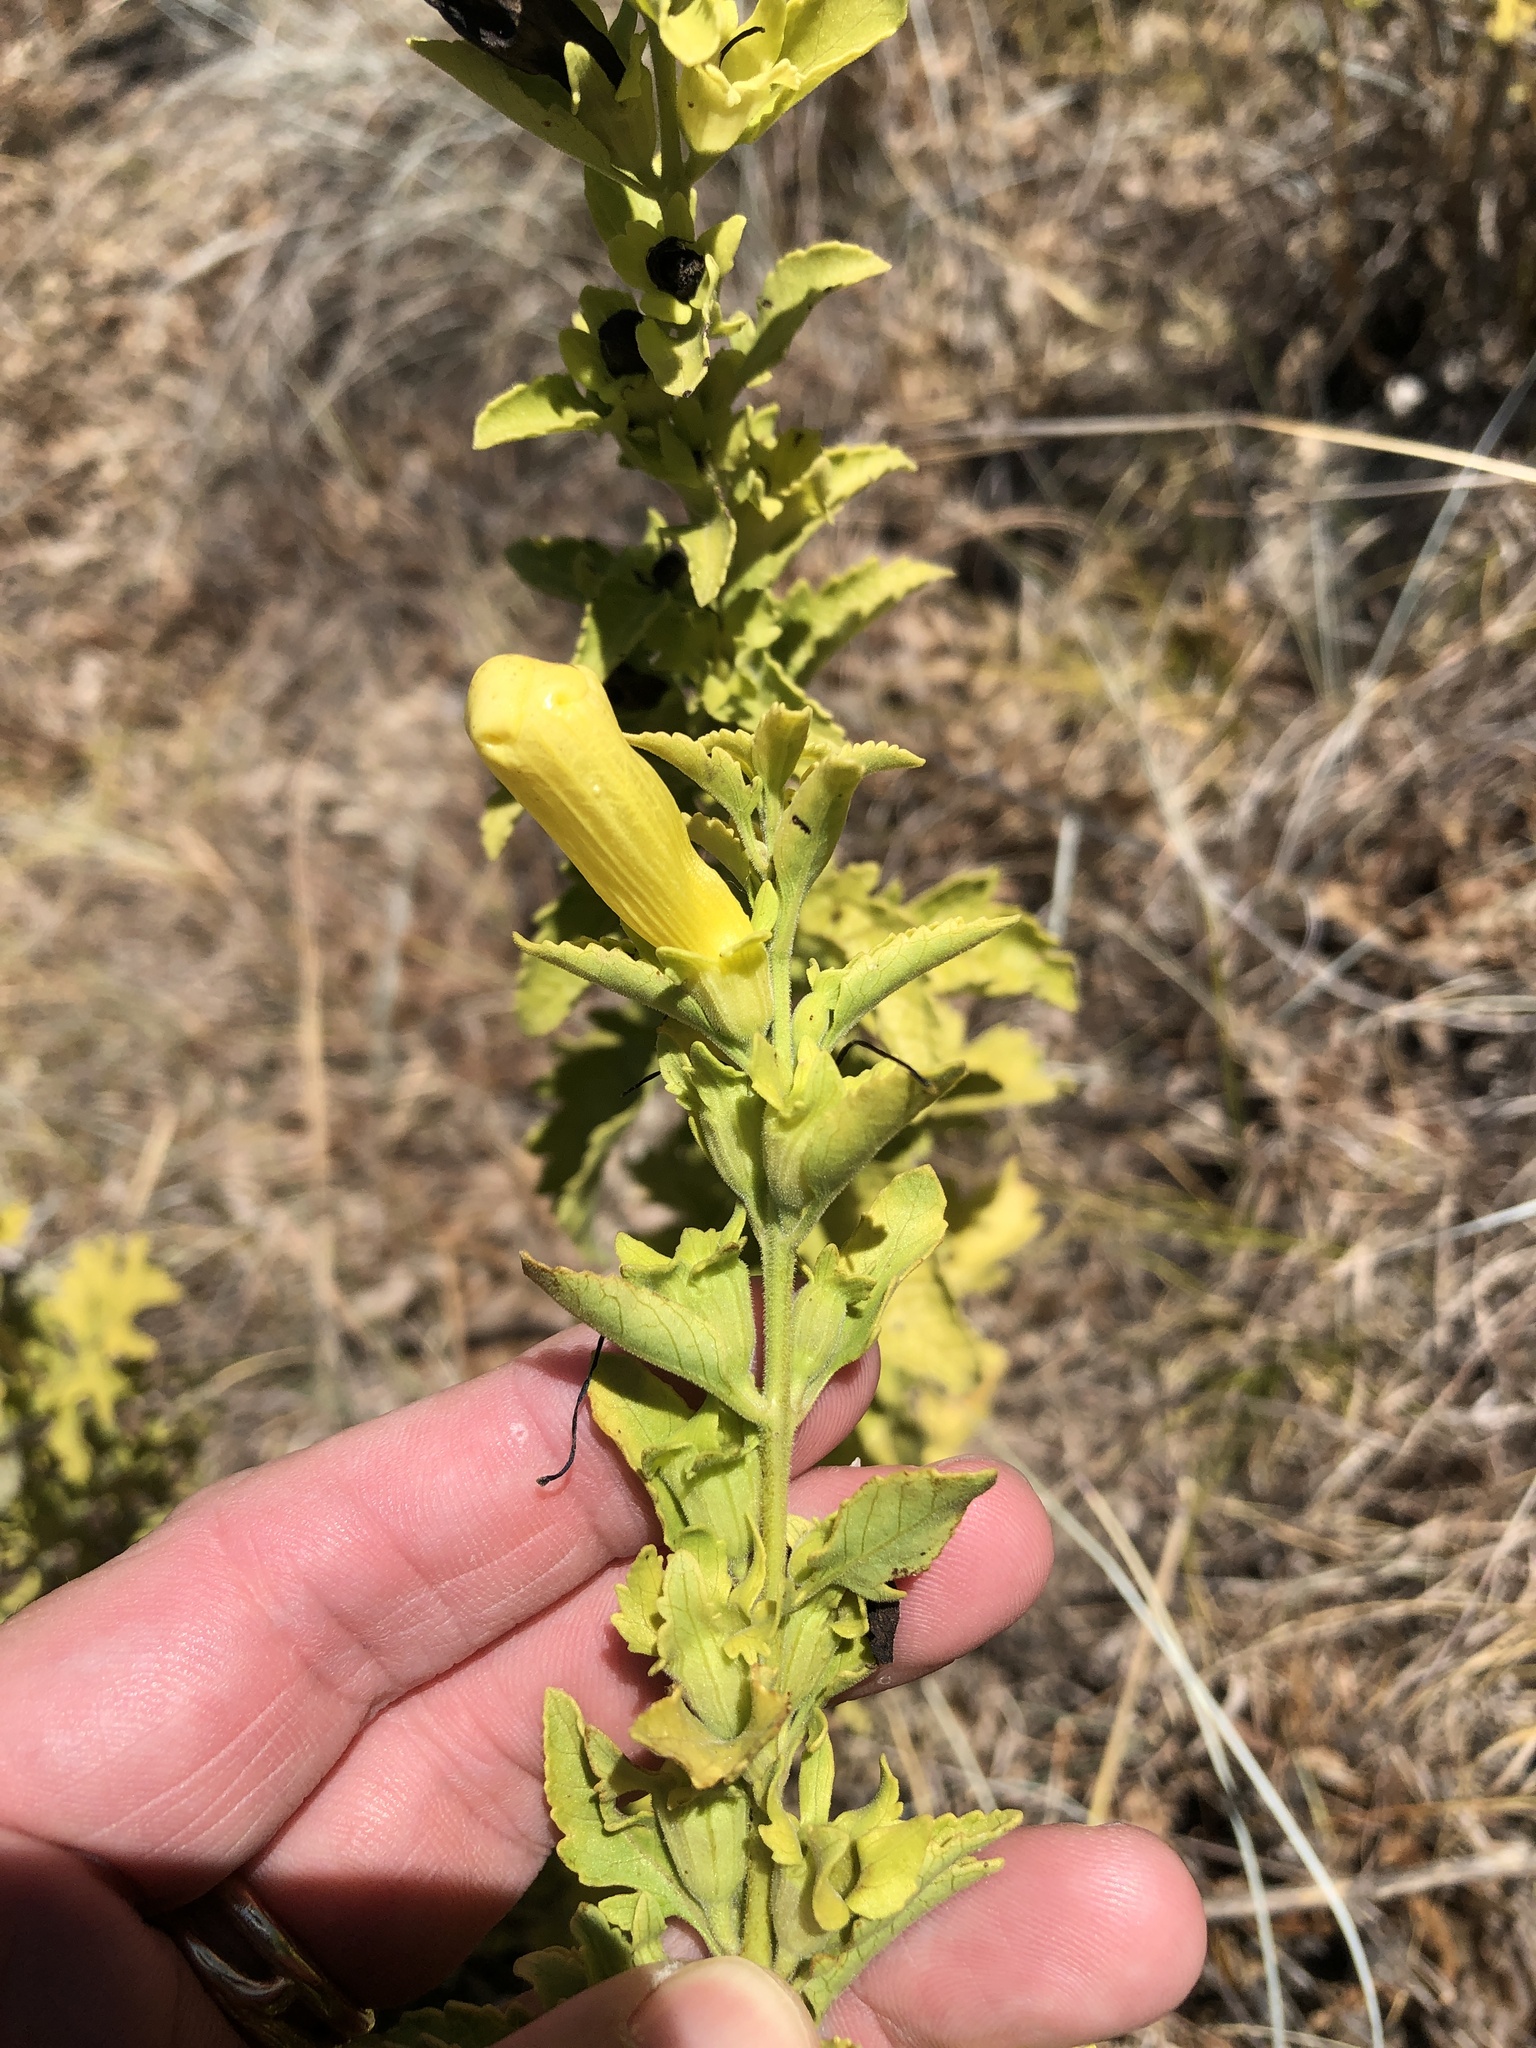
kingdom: Plantae
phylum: Tracheophyta
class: Magnoliopsida
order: Lamiales
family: Orobanchaceae
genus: Aureolaria
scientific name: Aureolaria grandiflora
